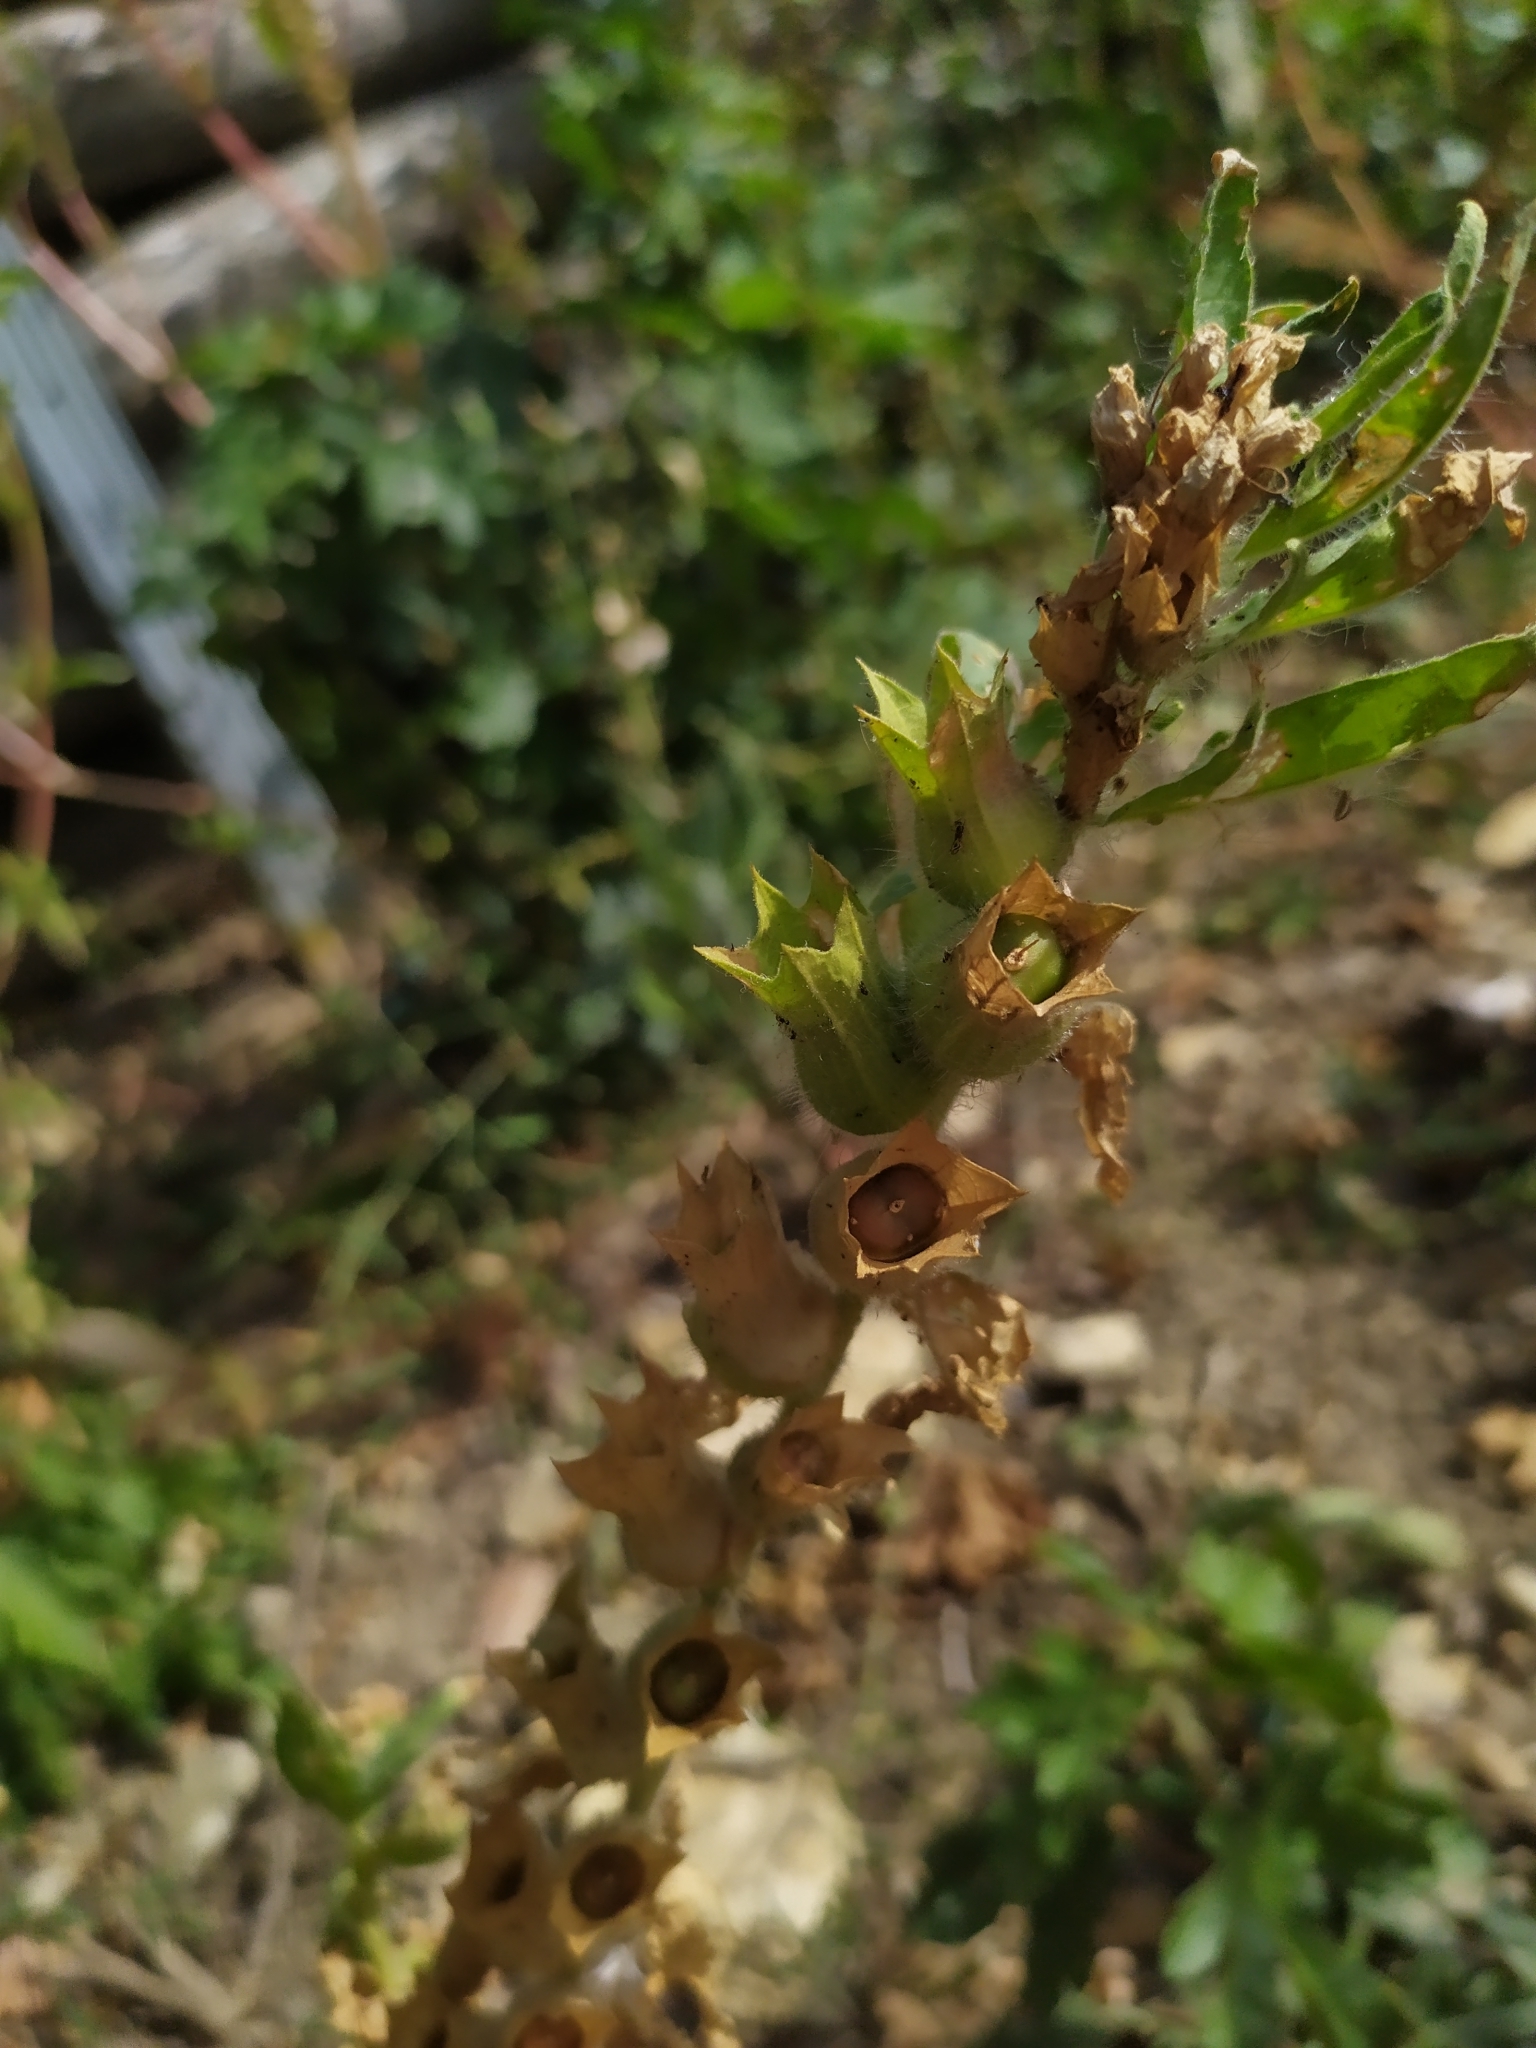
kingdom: Plantae
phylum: Tracheophyta
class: Magnoliopsida
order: Solanales
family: Solanaceae
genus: Hyoscyamus
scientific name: Hyoscyamus niger
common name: Henbane
